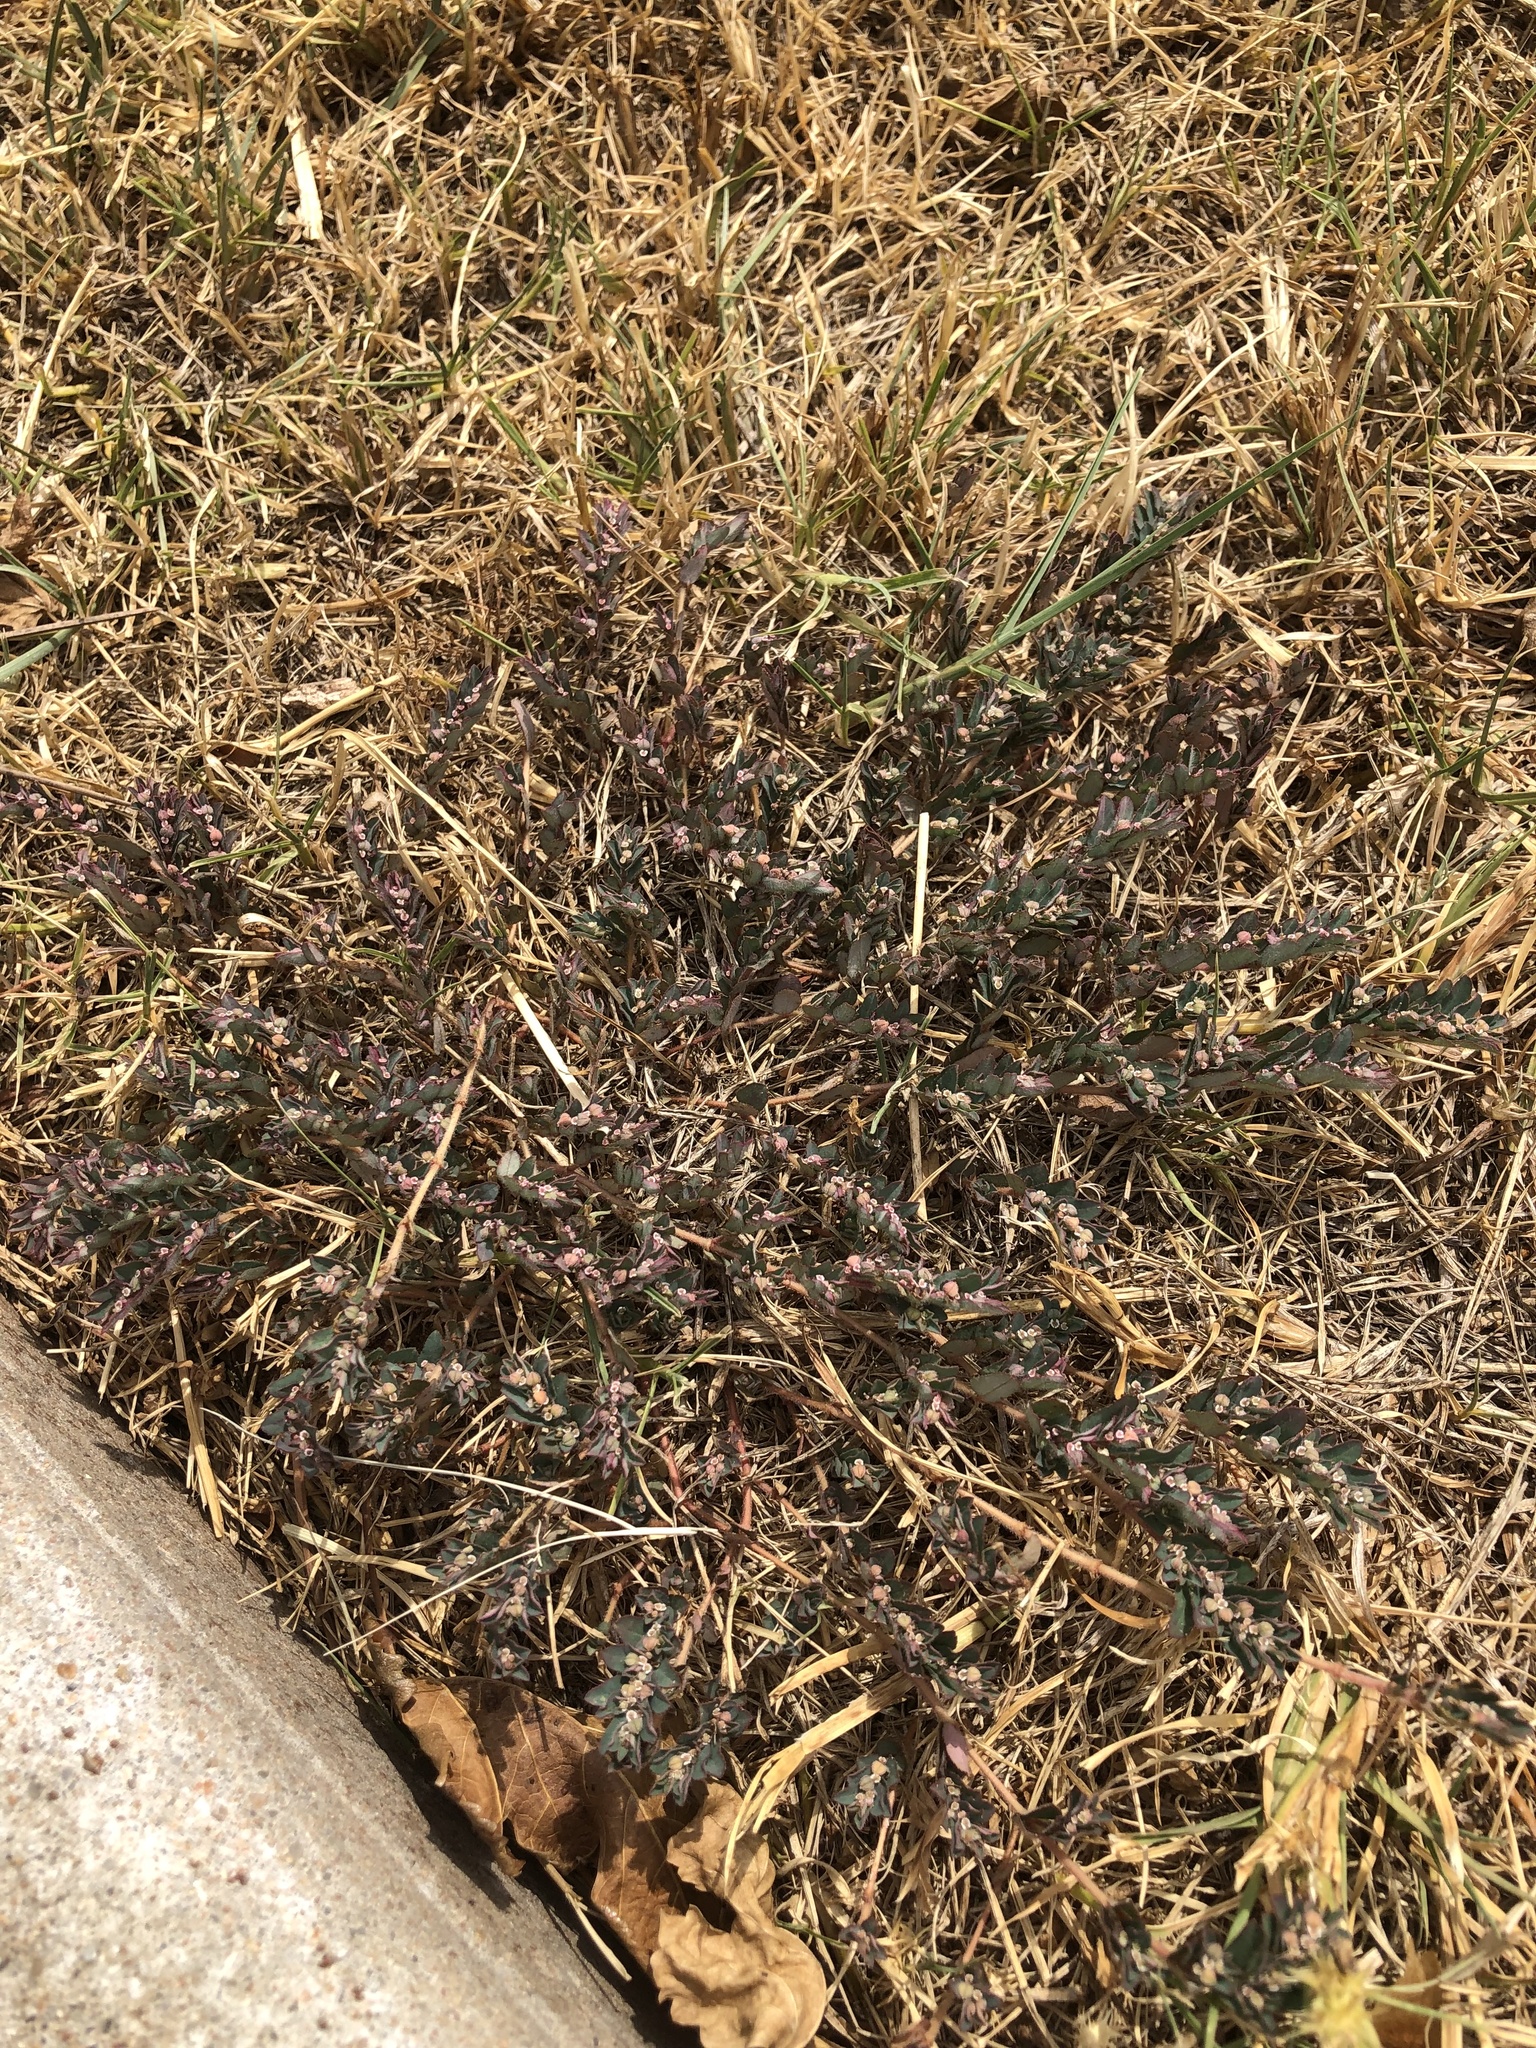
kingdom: Plantae
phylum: Tracheophyta
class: Magnoliopsida
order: Malpighiales
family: Euphorbiaceae
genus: Euphorbia
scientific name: Euphorbia maculata
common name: Spotted spurge
